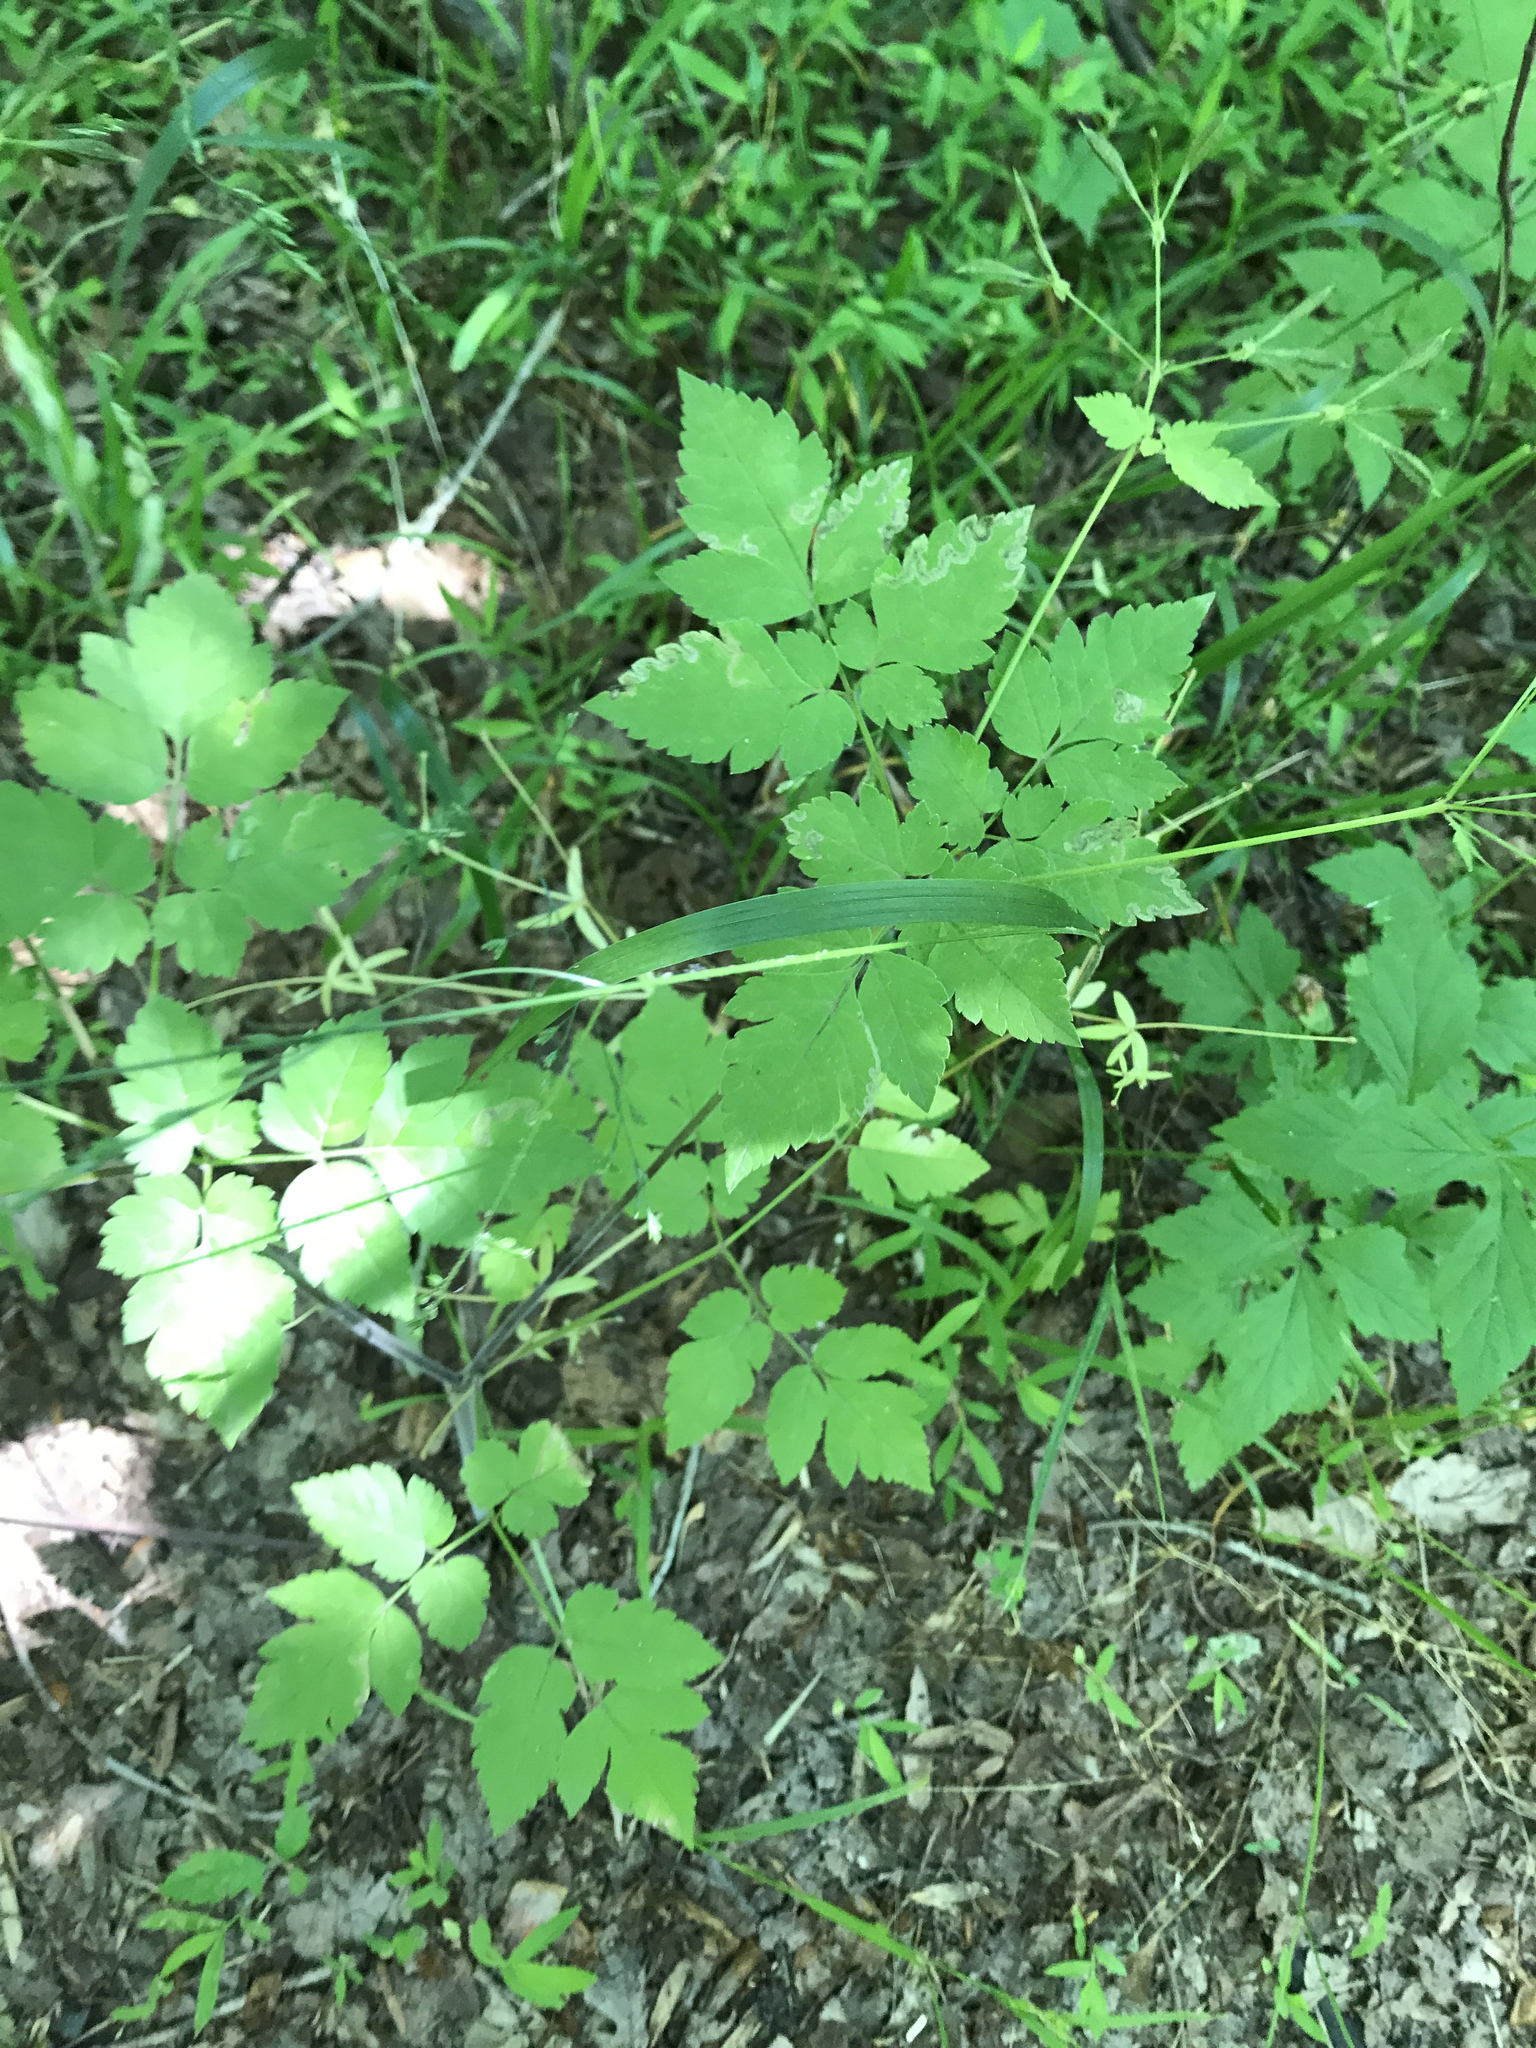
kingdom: Plantae
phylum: Tracheophyta
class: Magnoliopsida
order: Apiales
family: Apiaceae
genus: Osmorhiza
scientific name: Osmorhiza longistylis
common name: Smooth sweet cicely
